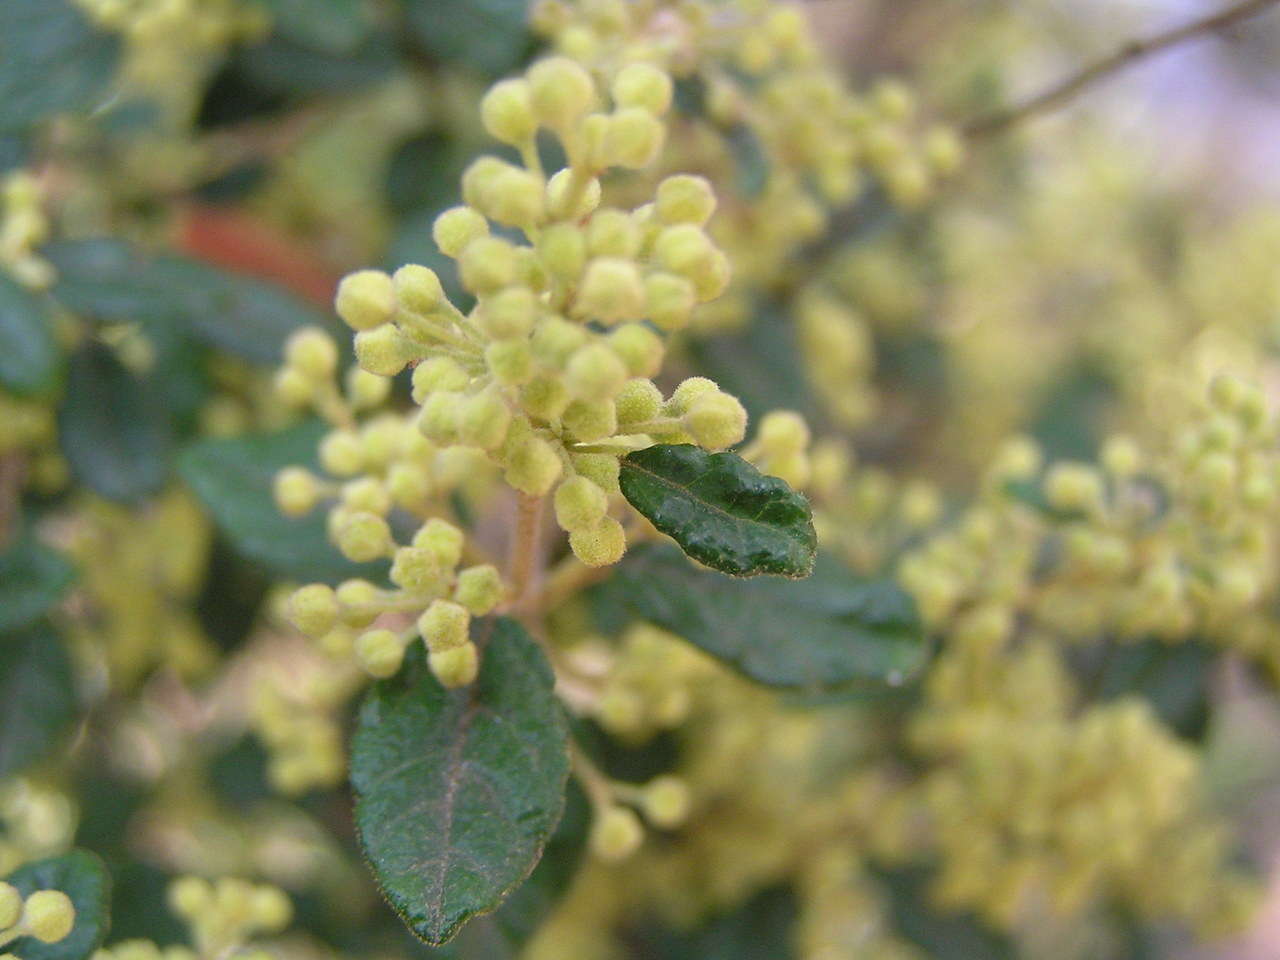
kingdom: Plantae
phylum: Tracheophyta
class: Magnoliopsida
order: Rosales
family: Rhamnaceae
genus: Pomaderris
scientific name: Pomaderris racemosa
